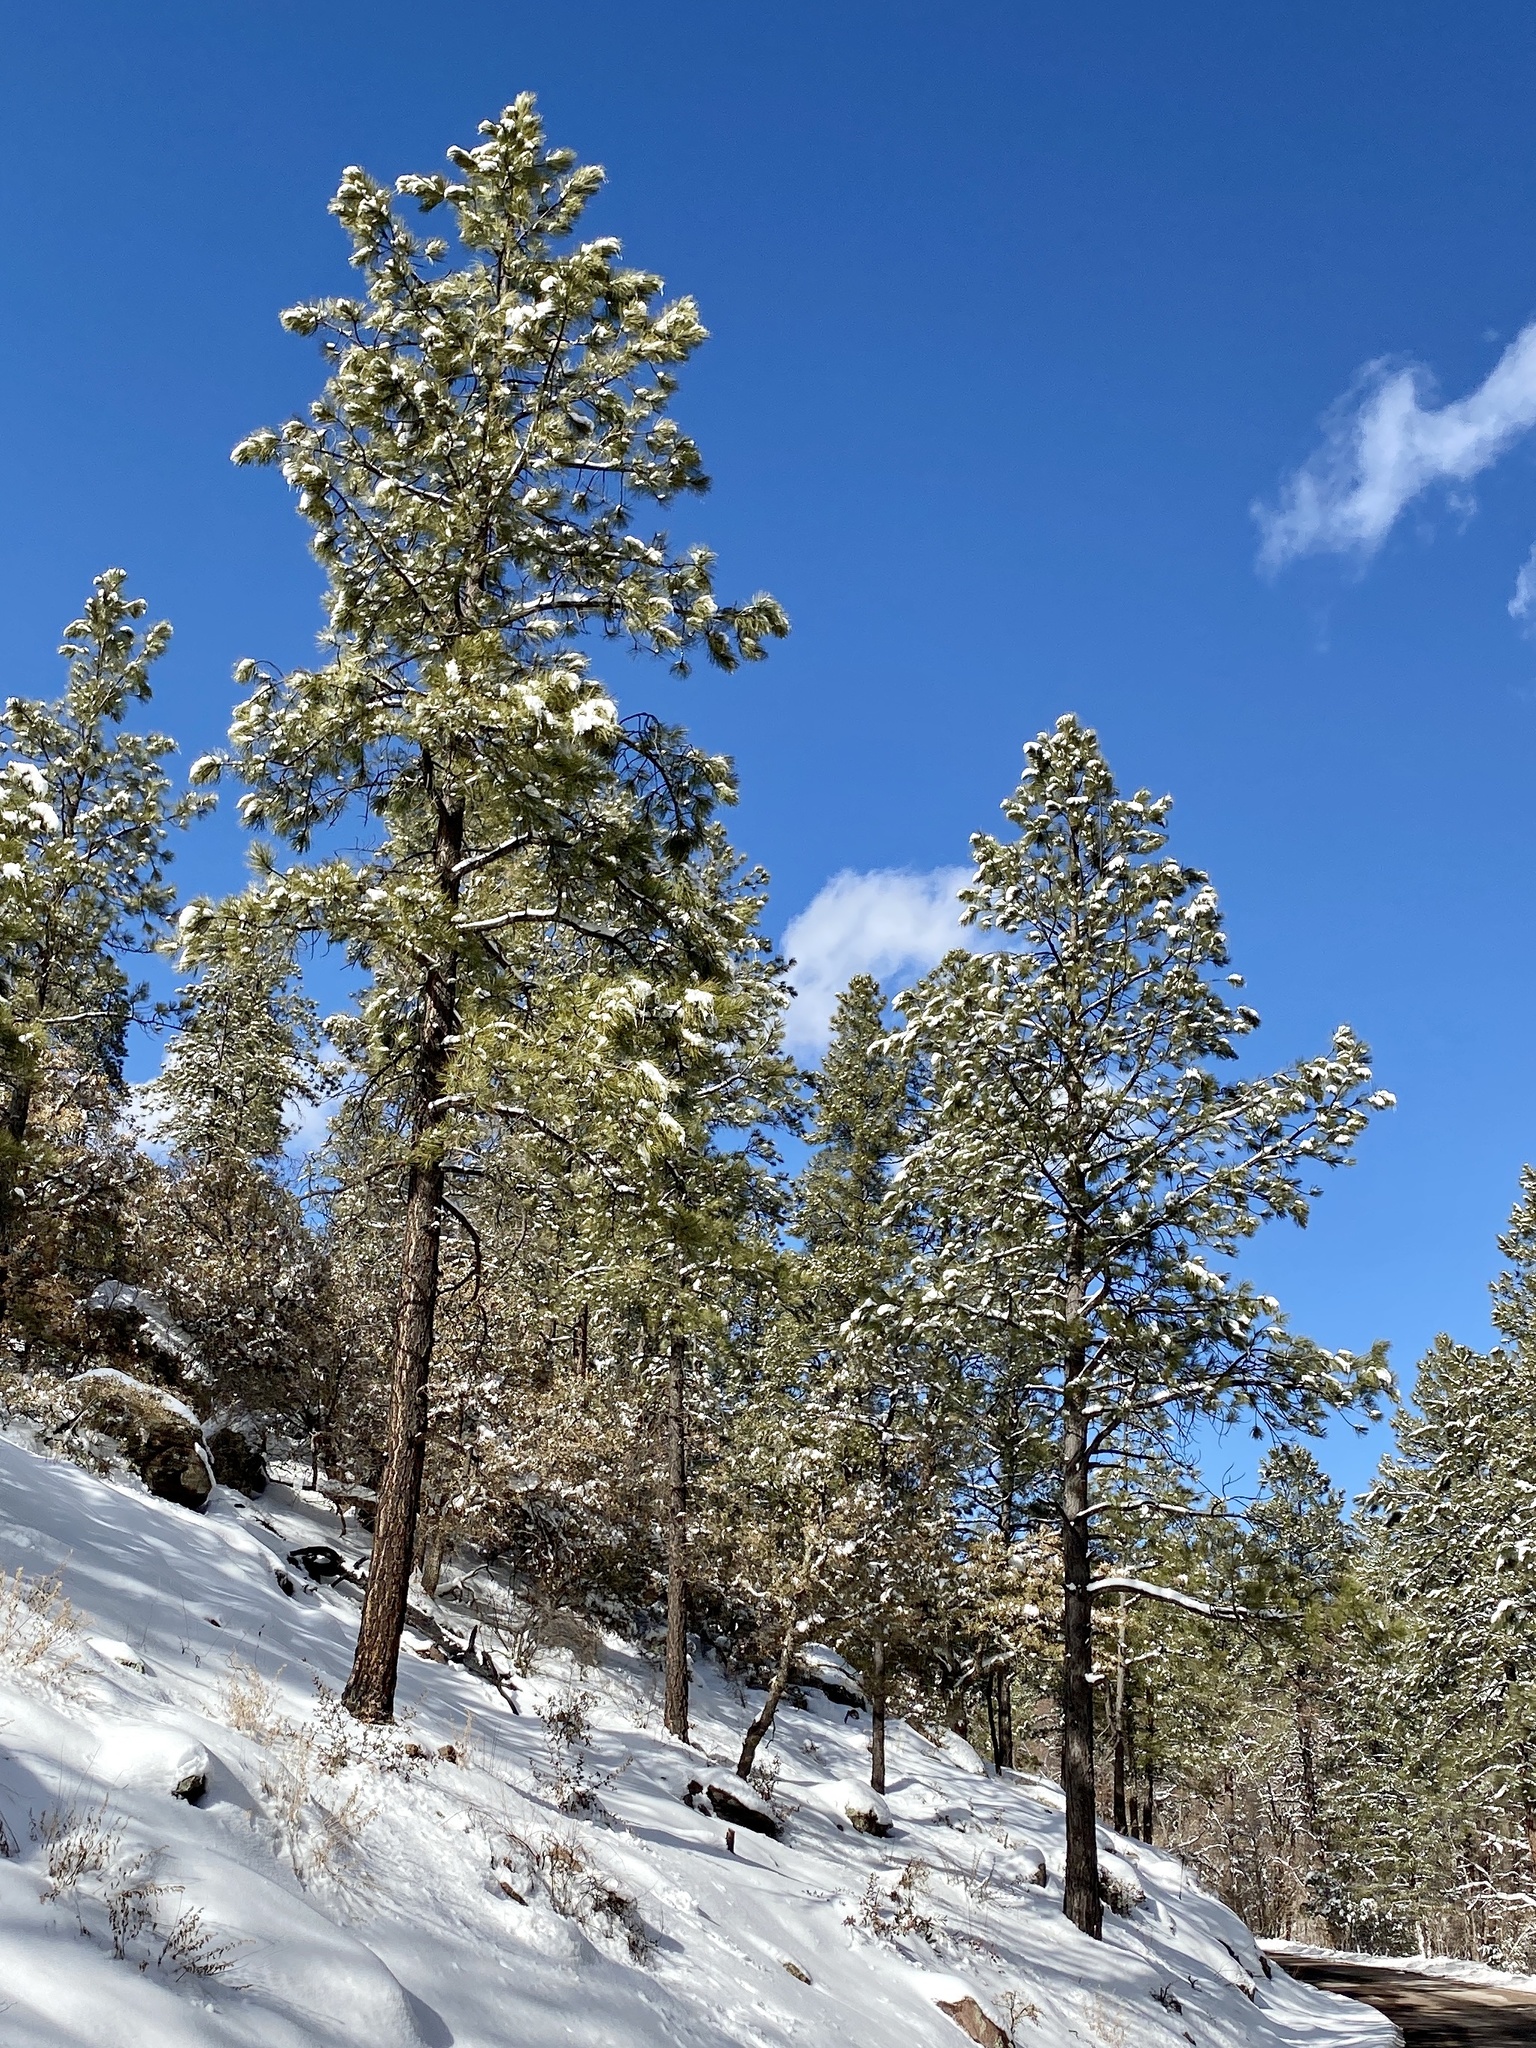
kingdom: Plantae
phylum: Tracheophyta
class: Pinopsida
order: Pinales
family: Pinaceae
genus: Pinus
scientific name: Pinus ponderosa
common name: Western yellow-pine
